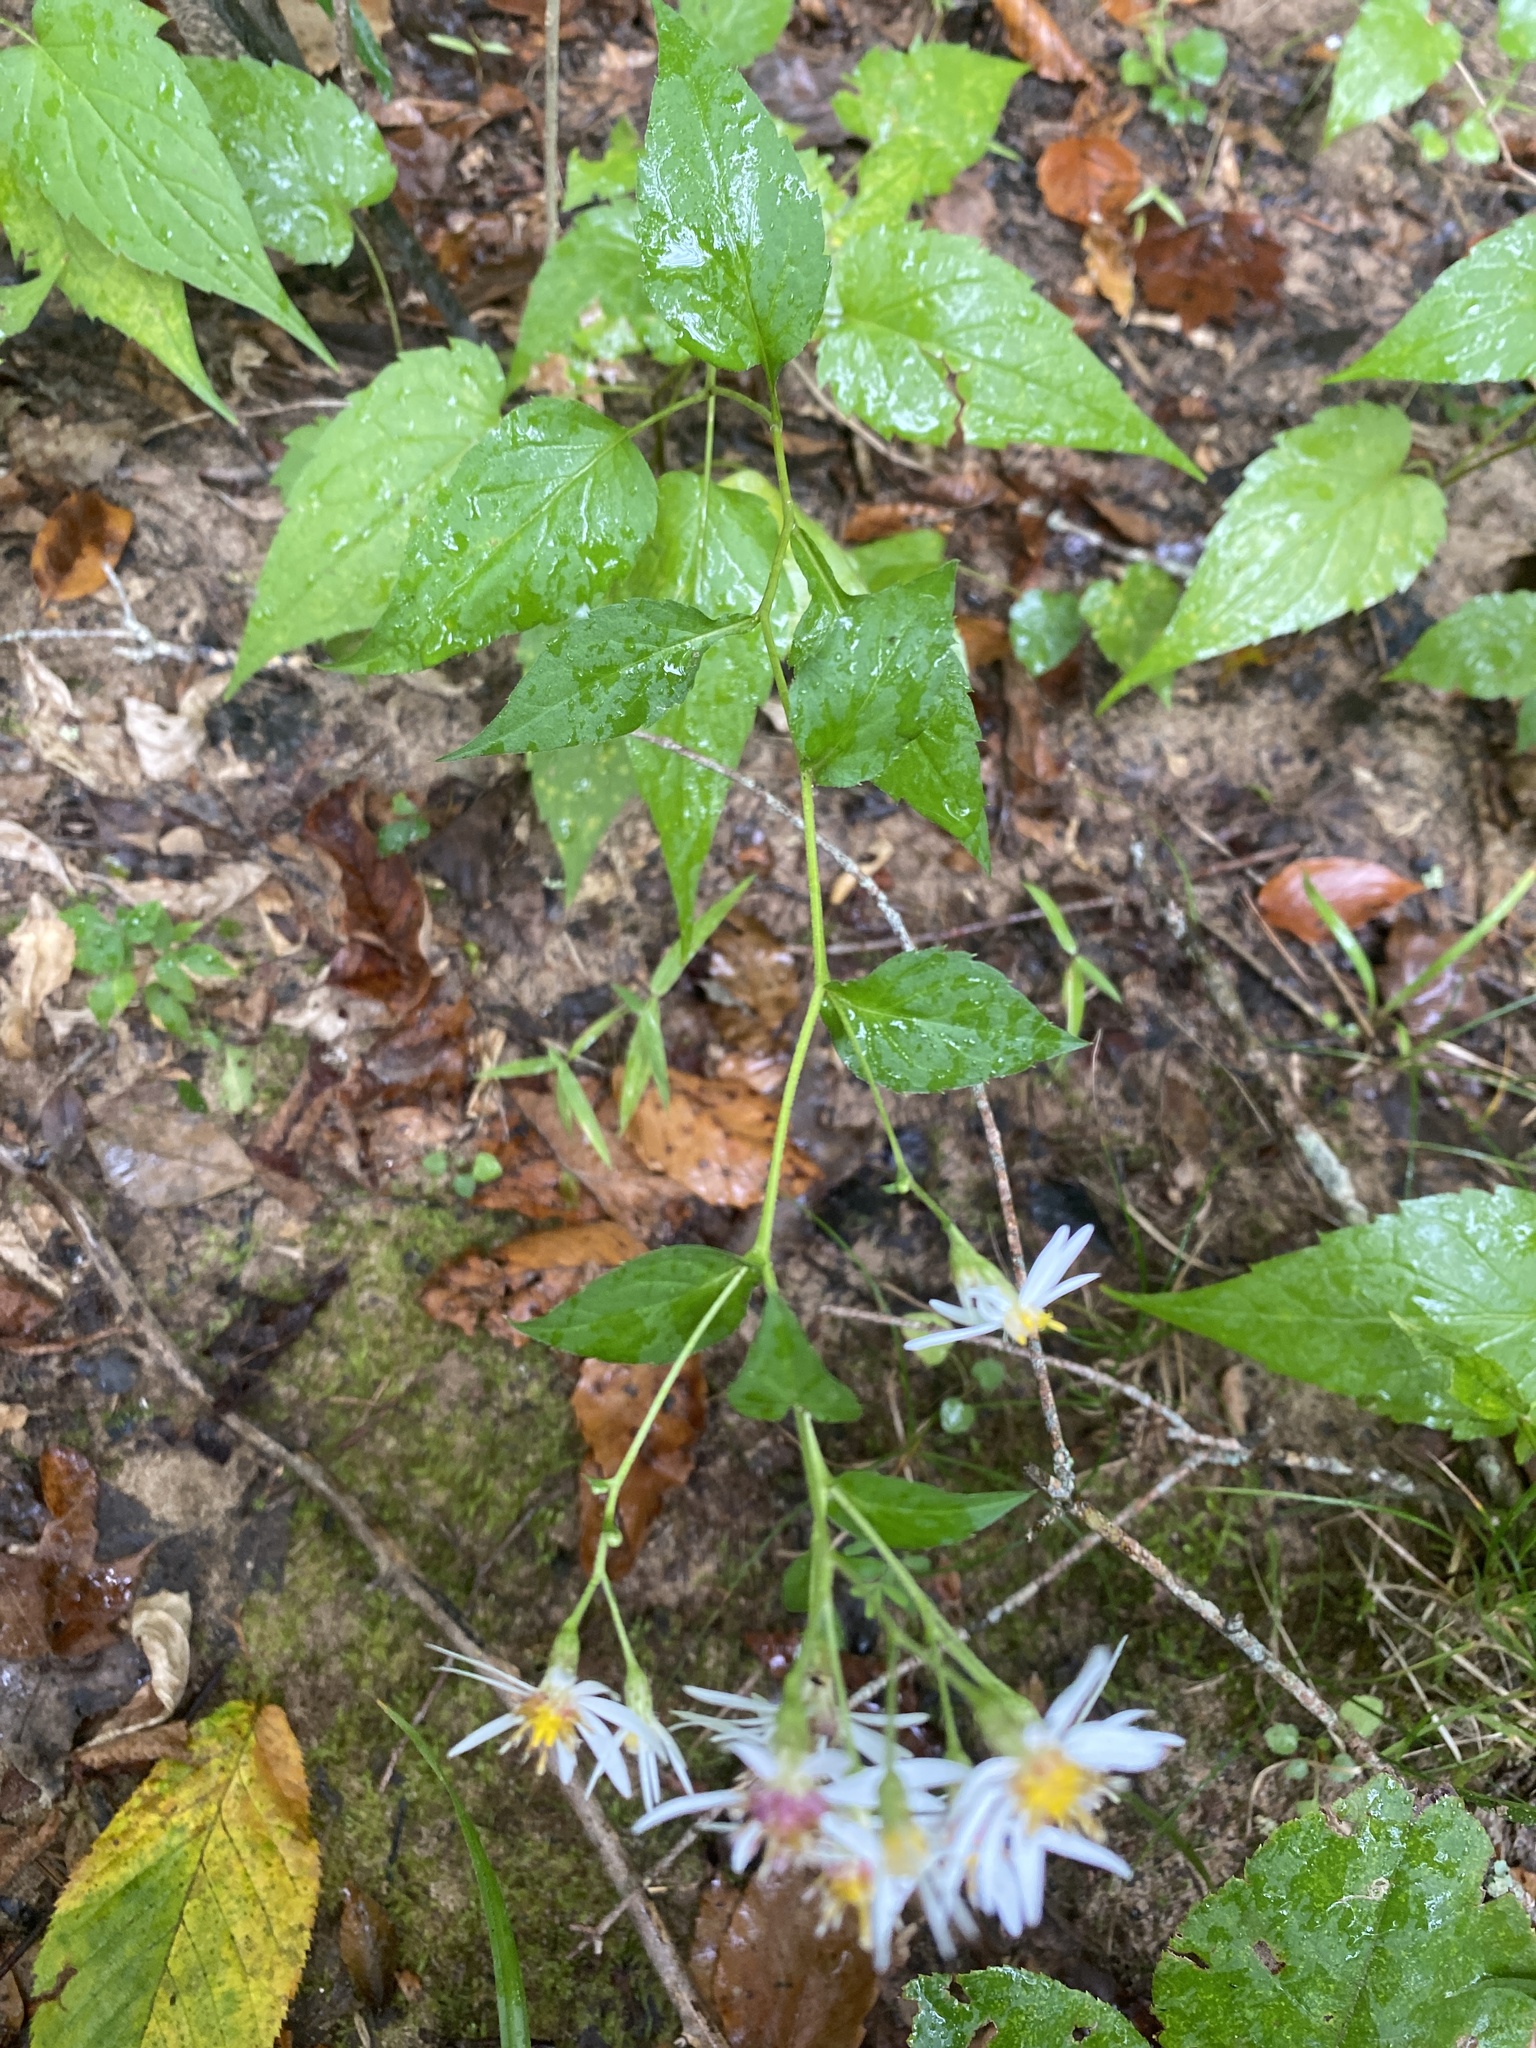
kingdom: Plantae
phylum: Tracheophyta
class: Magnoliopsida
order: Asterales
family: Asteraceae
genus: Eurybia
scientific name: Eurybia divaricata
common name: White wood aster
